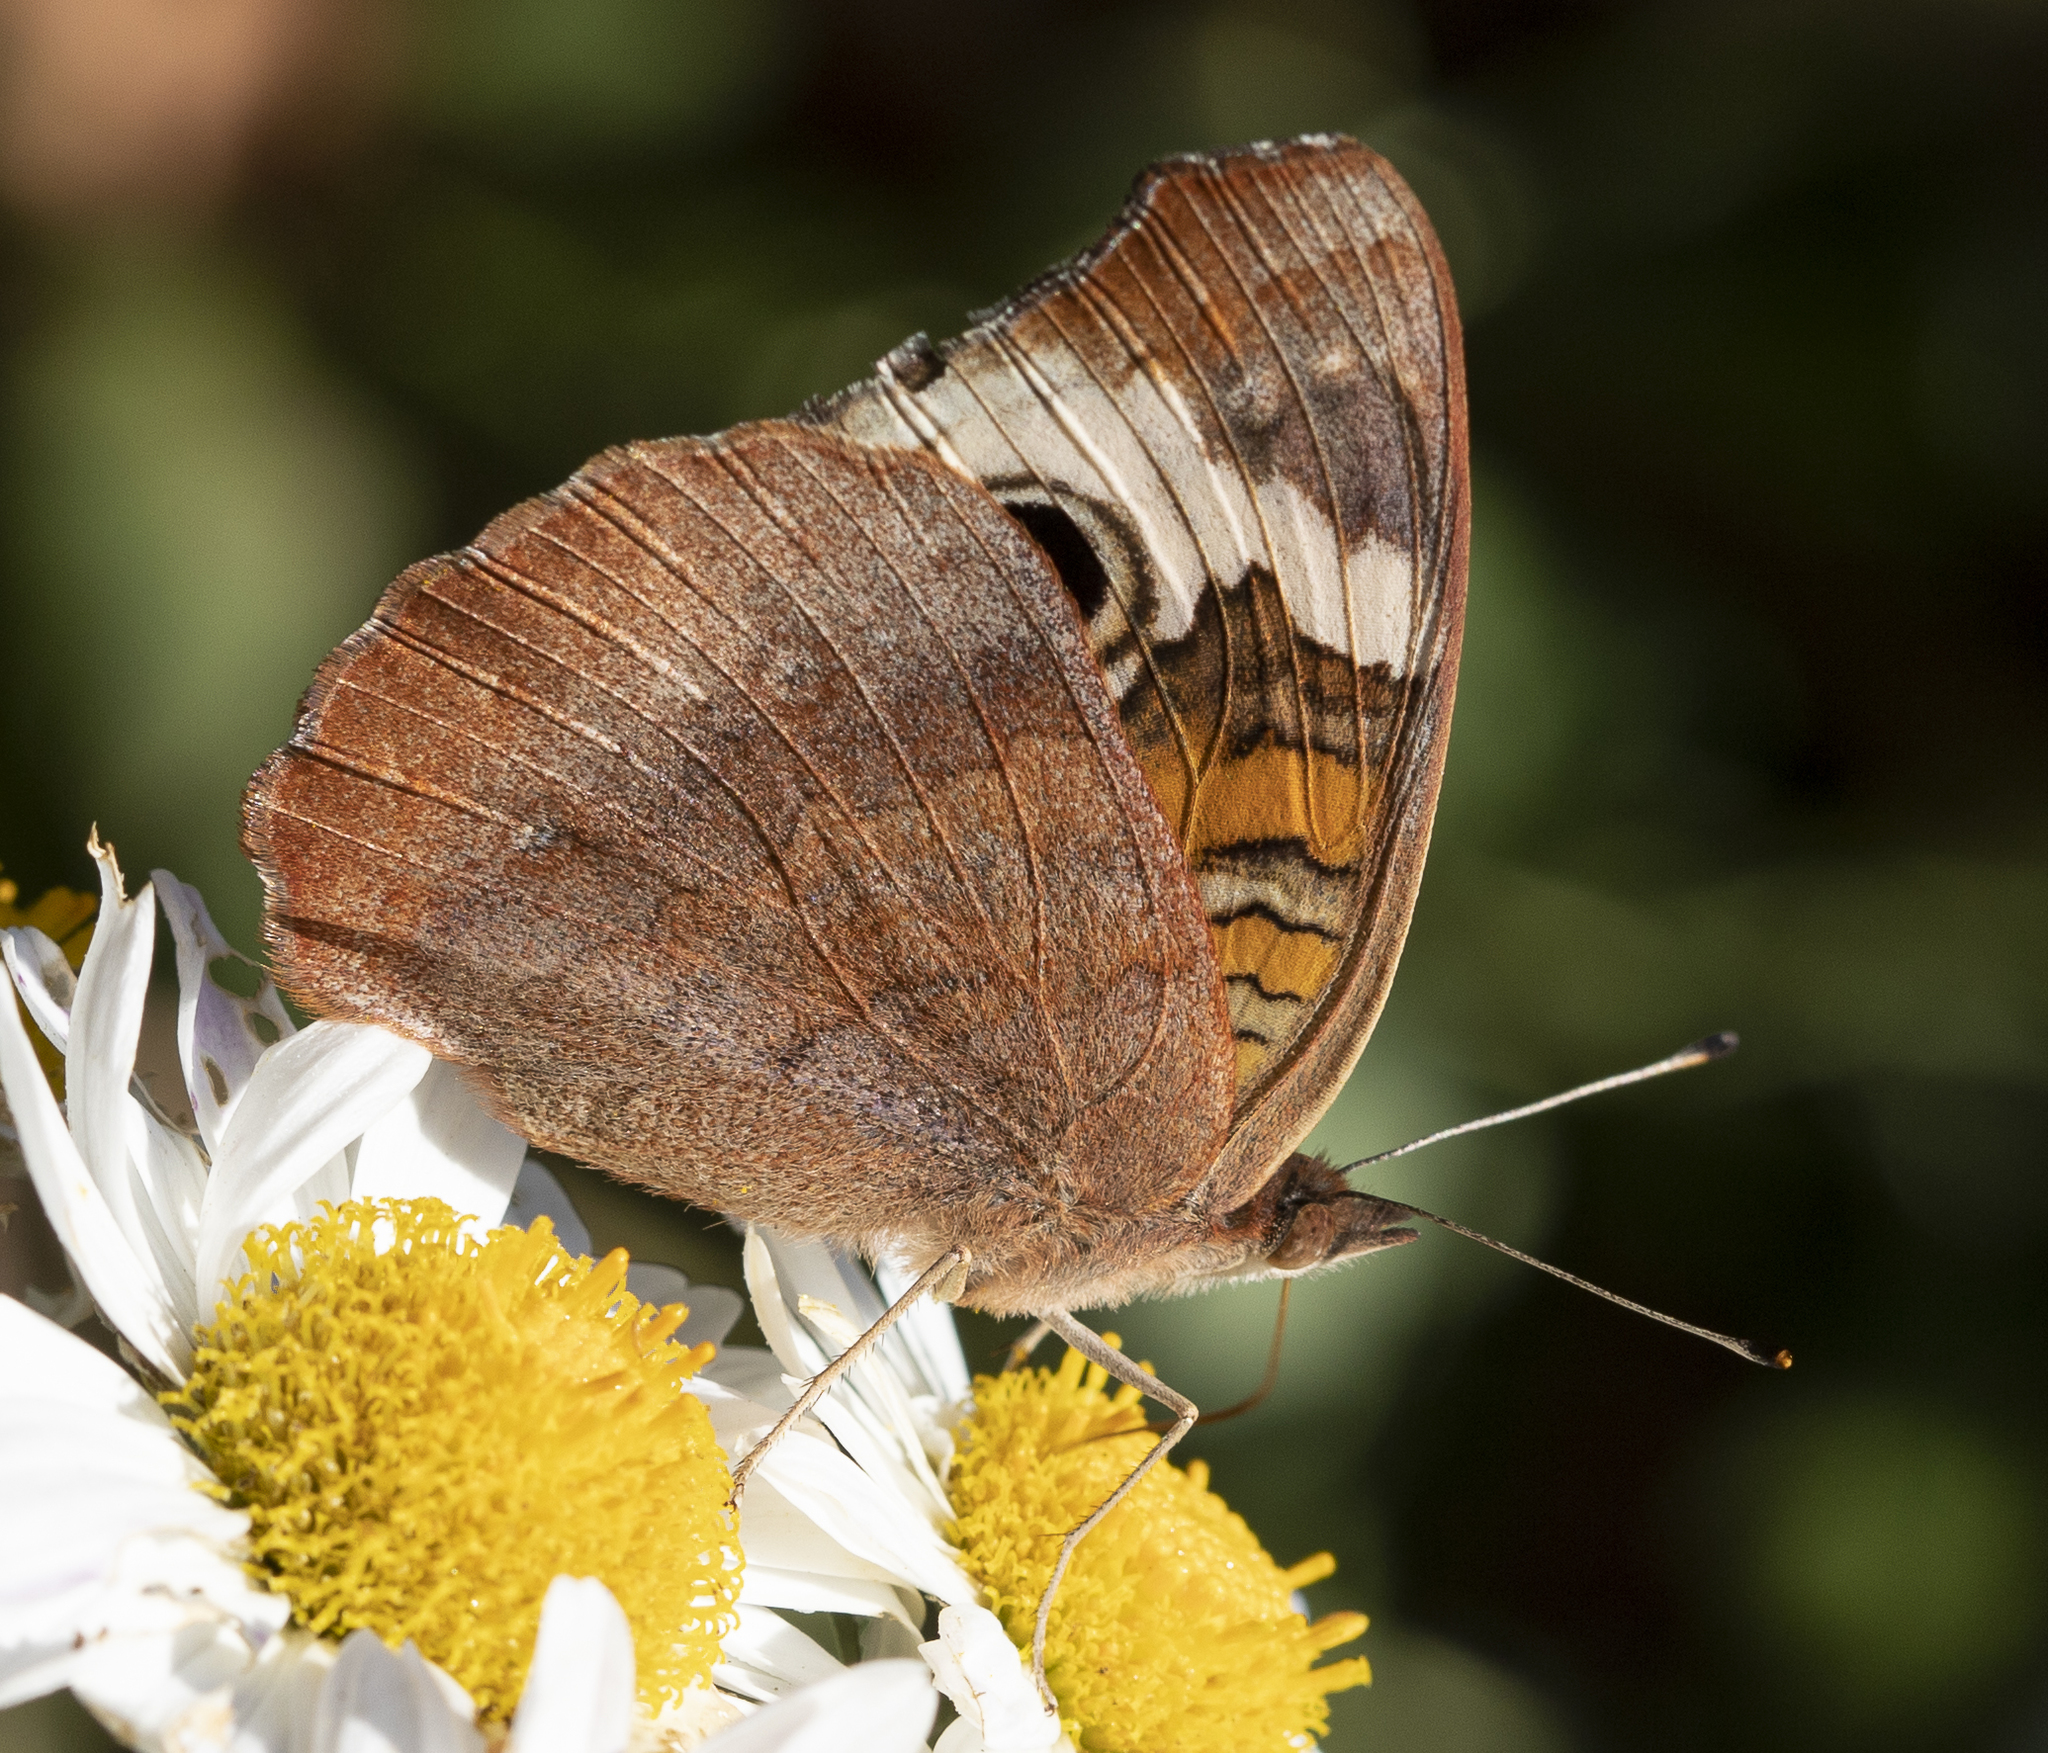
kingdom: Animalia
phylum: Arthropoda
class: Insecta
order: Lepidoptera
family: Nymphalidae
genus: Junonia
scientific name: Junonia coenia
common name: Common buckeye
